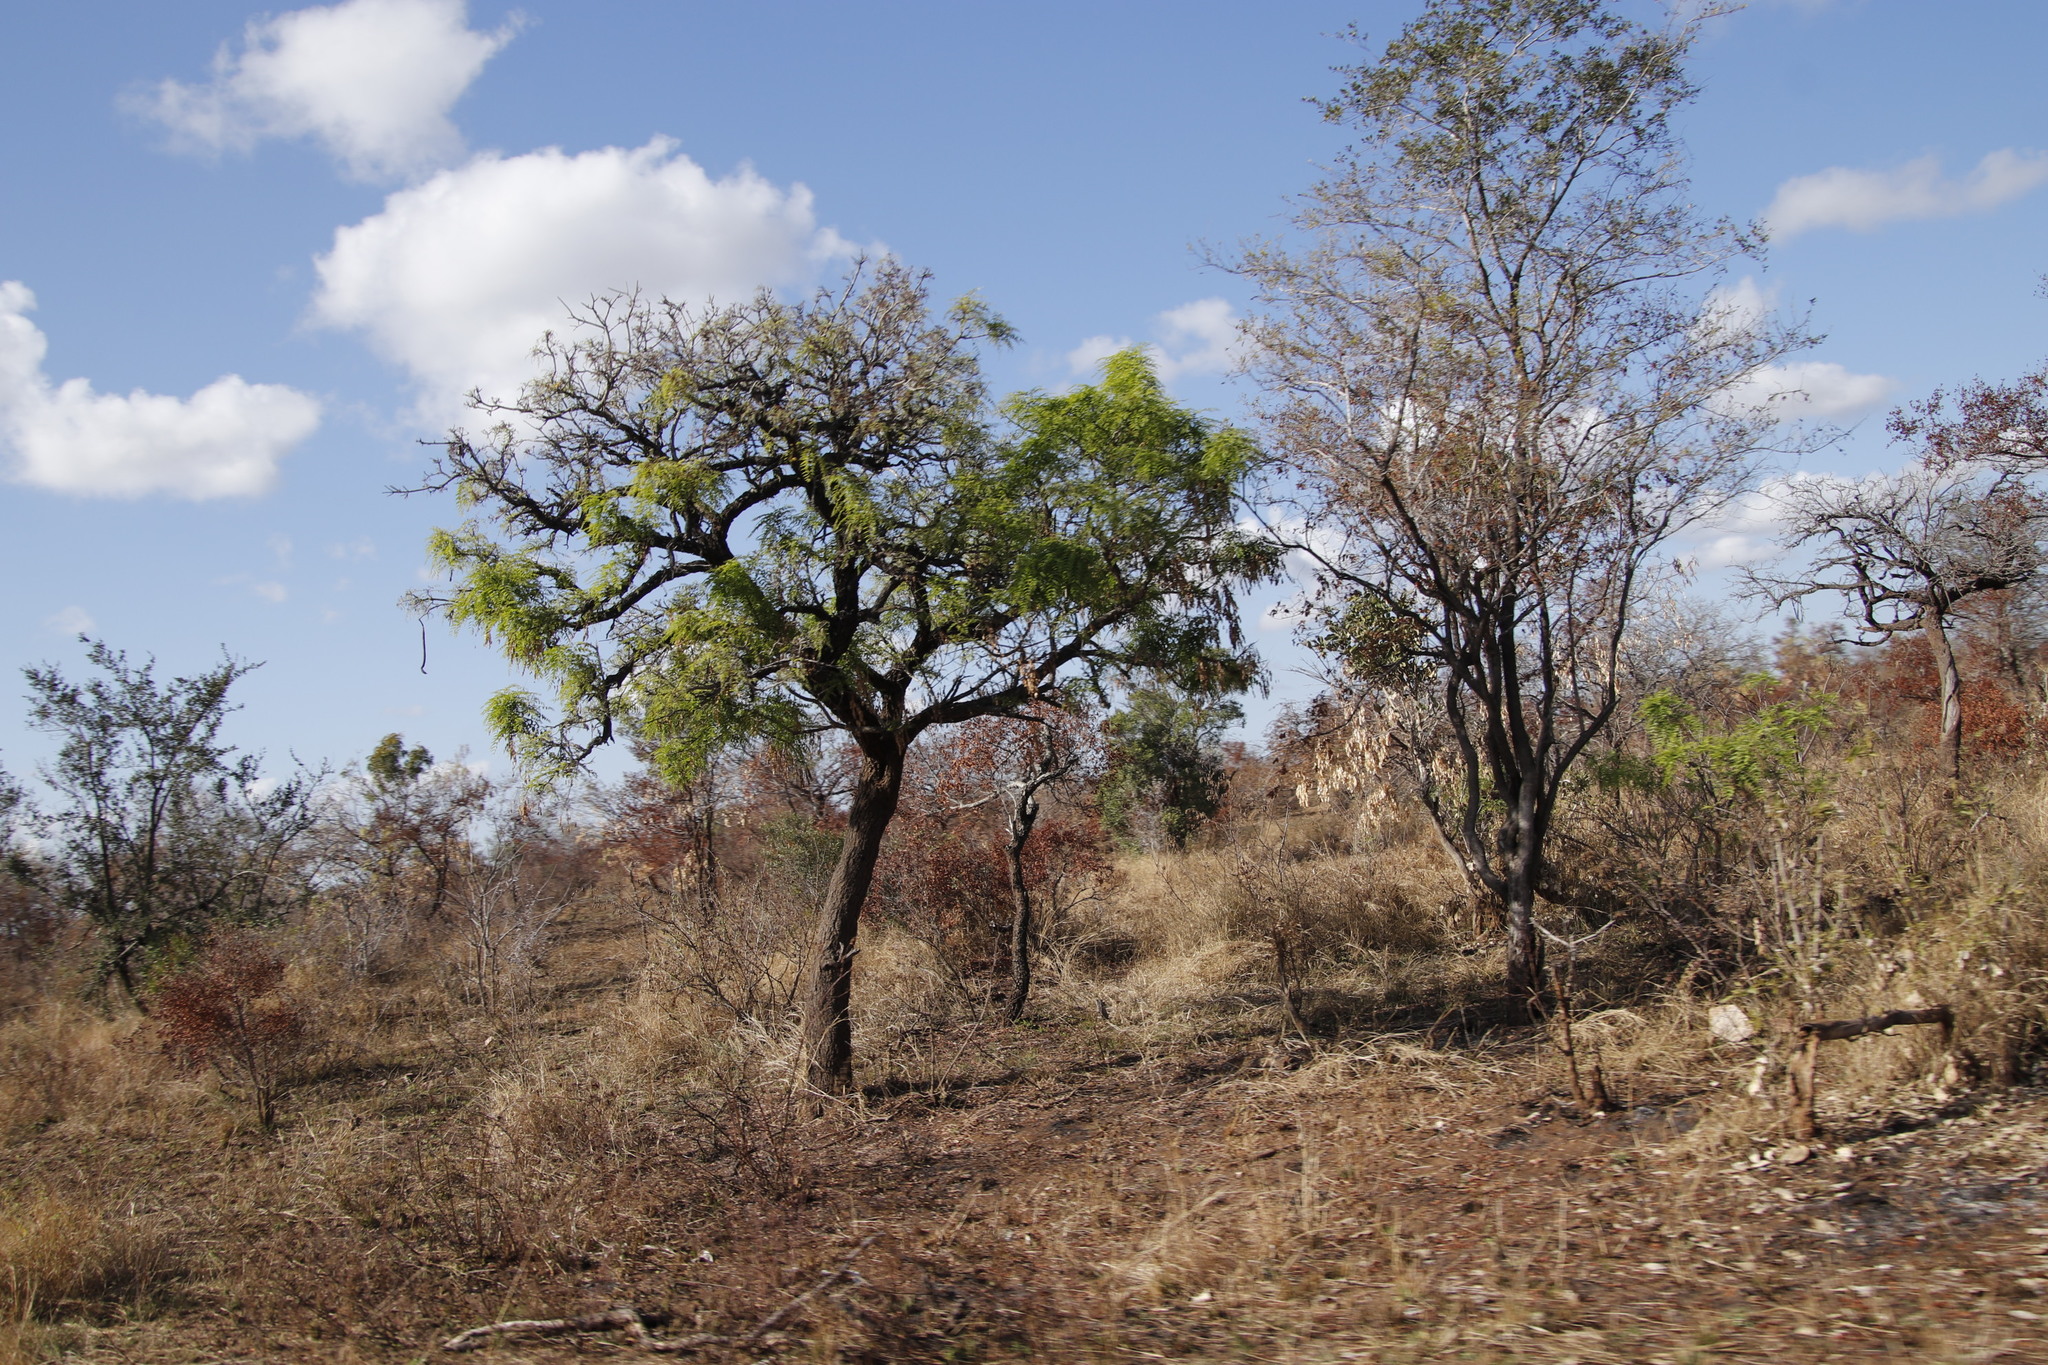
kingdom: Plantae
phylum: Tracheophyta
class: Magnoliopsida
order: Fabales
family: Fabaceae
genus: Cassia
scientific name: Cassia abbreviata
